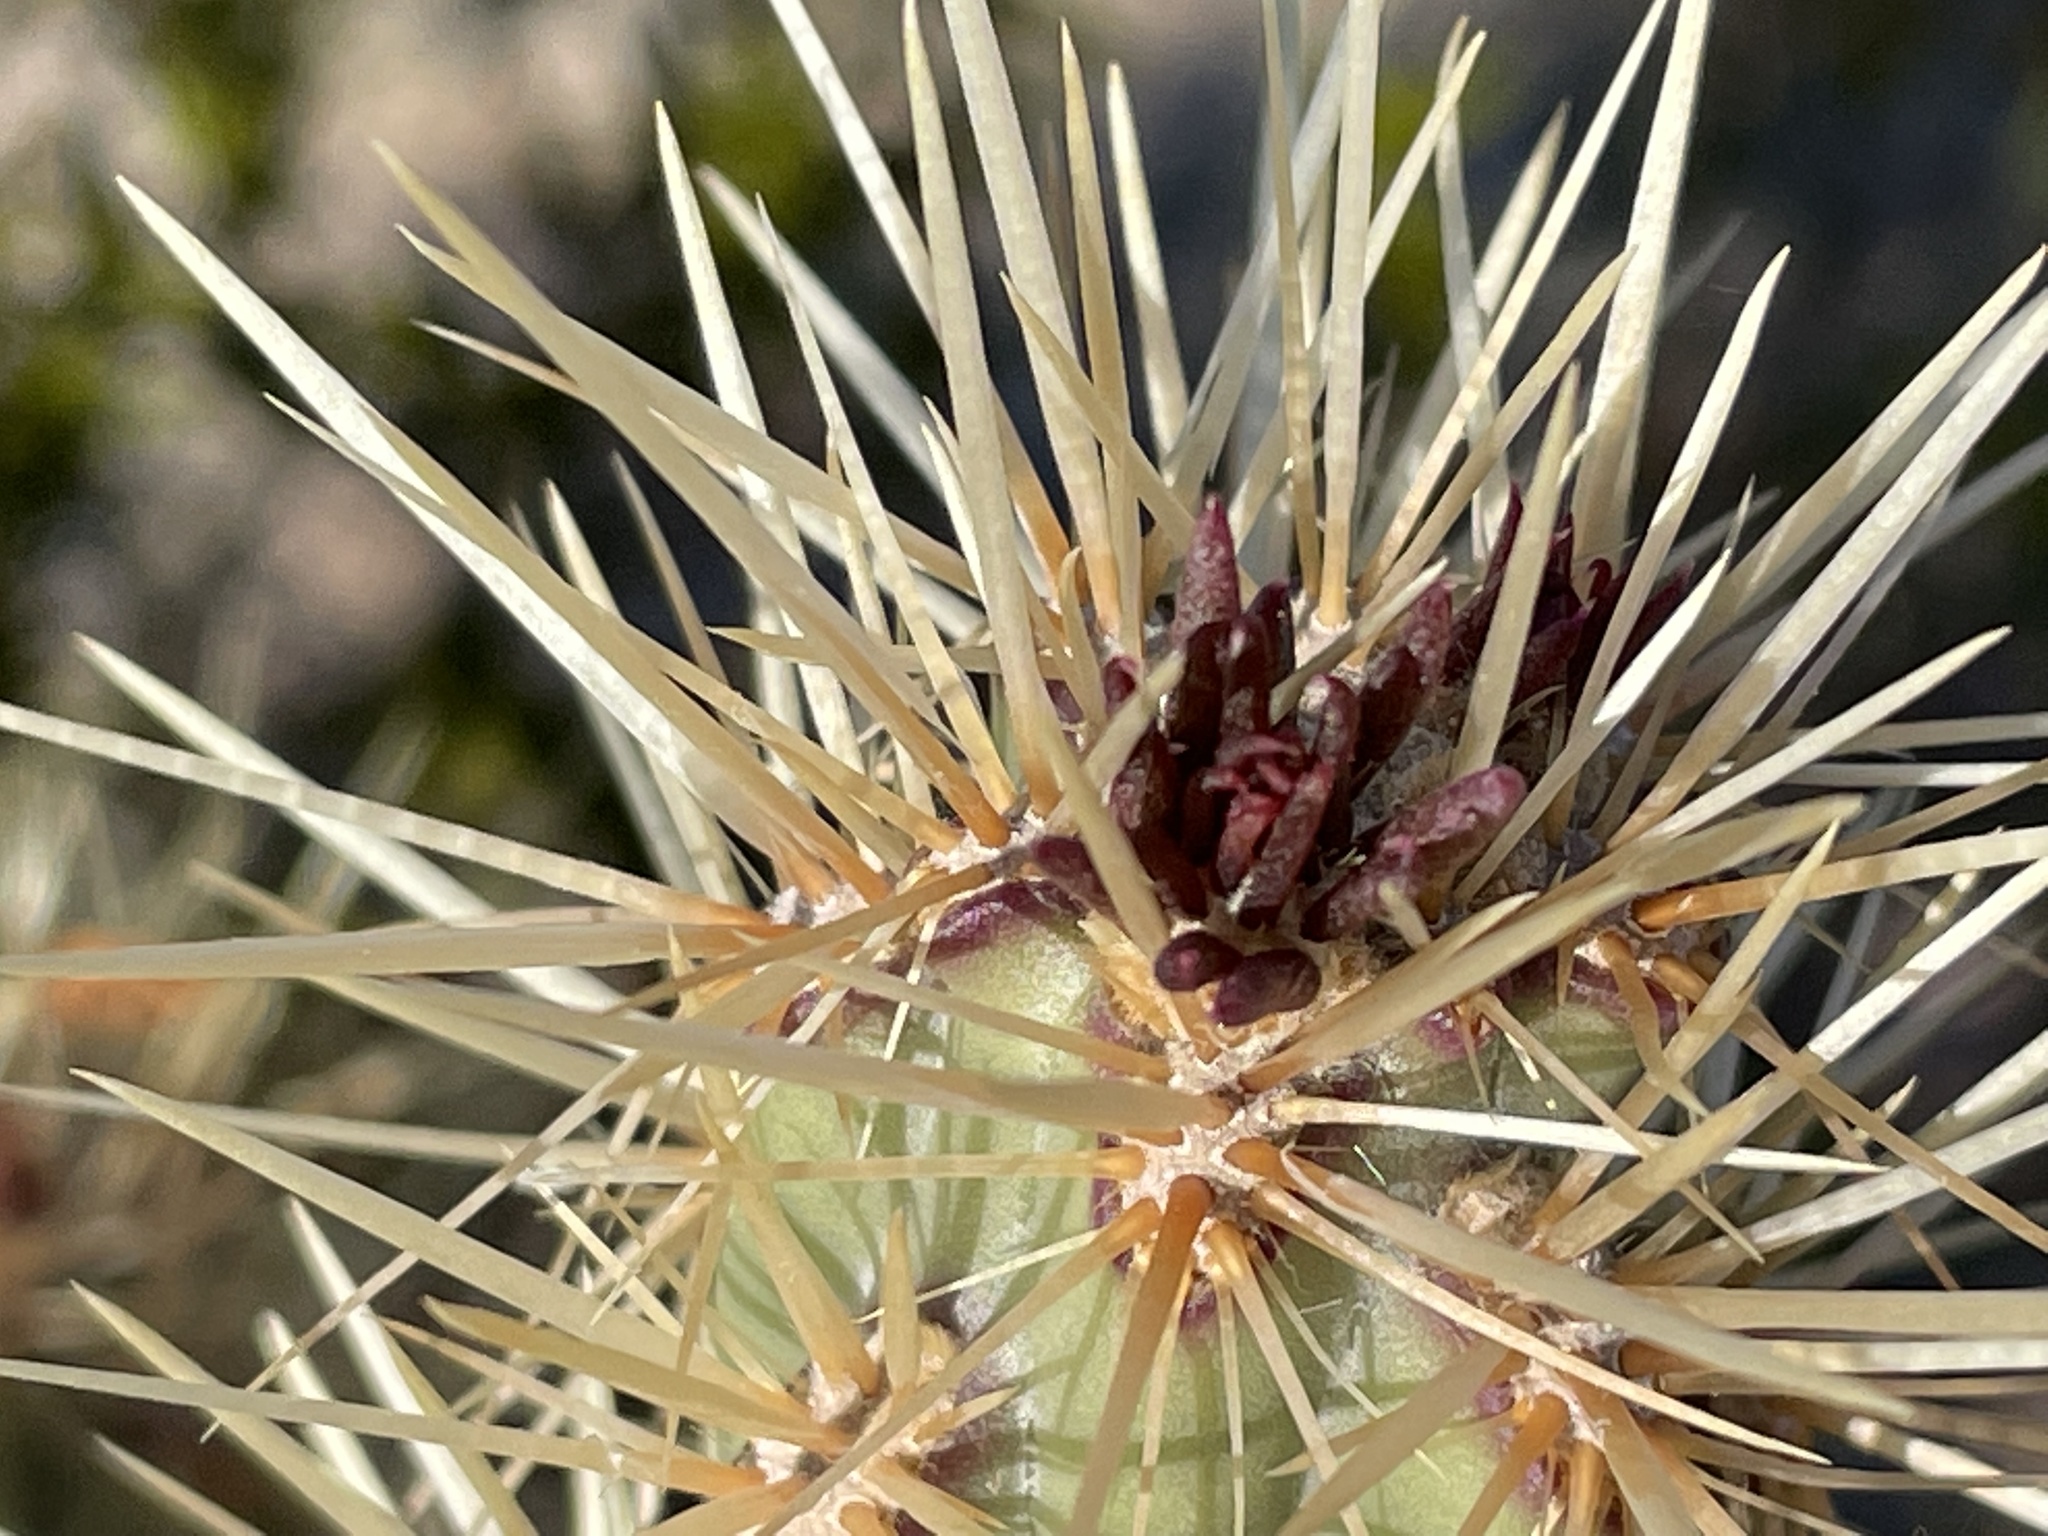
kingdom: Plantae
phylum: Tracheophyta
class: Magnoliopsida
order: Caryophyllales
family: Cactaceae
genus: Cylindropuntia
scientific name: Cylindropuntia acanthocarpa
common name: Buckhorn cholla
